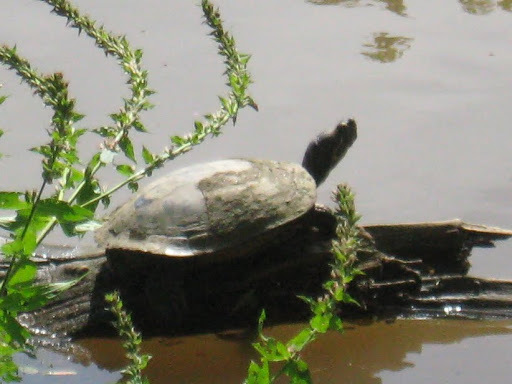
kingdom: Animalia
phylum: Chordata
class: Testudines
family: Emydidae
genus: Trachemys
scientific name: Trachemys scripta
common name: Slider
